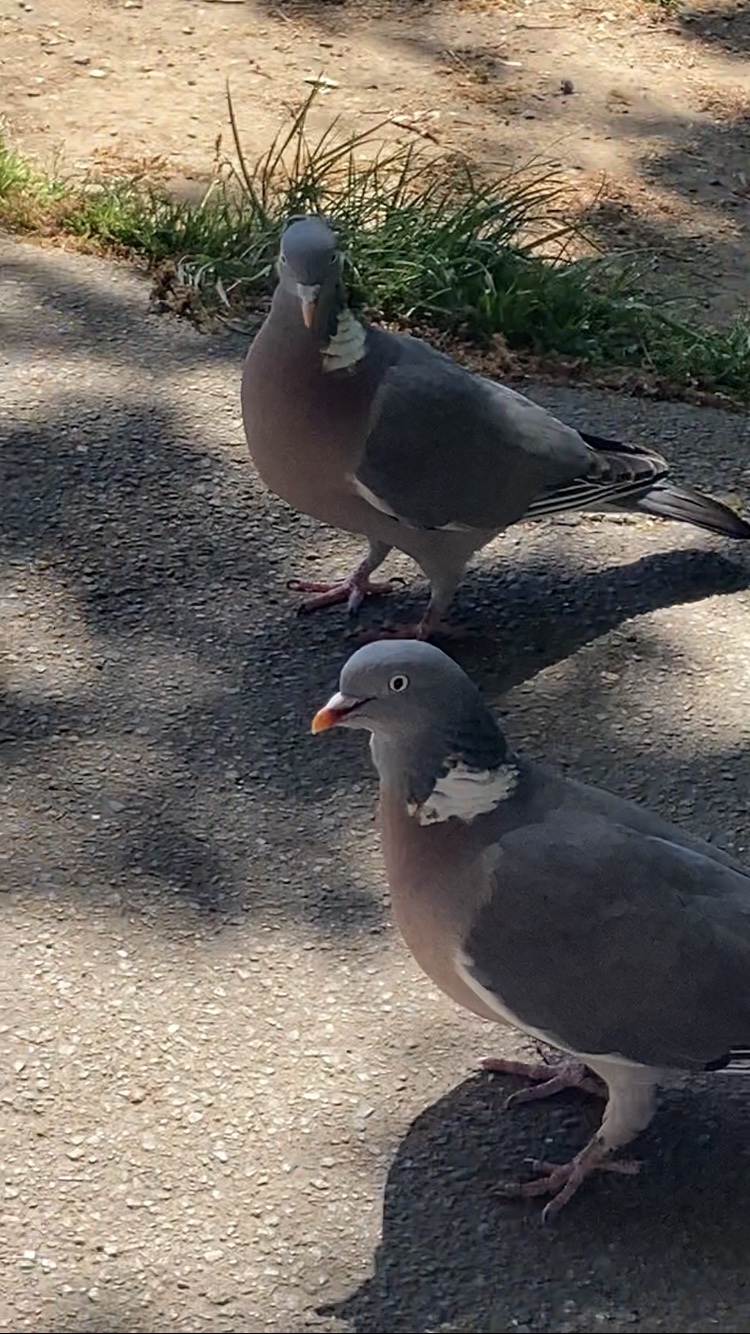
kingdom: Animalia
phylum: Chordata
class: Aves
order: Columbiformes
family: Columbidae
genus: Columba
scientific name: Columba palumbus
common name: Common wood pigeon
